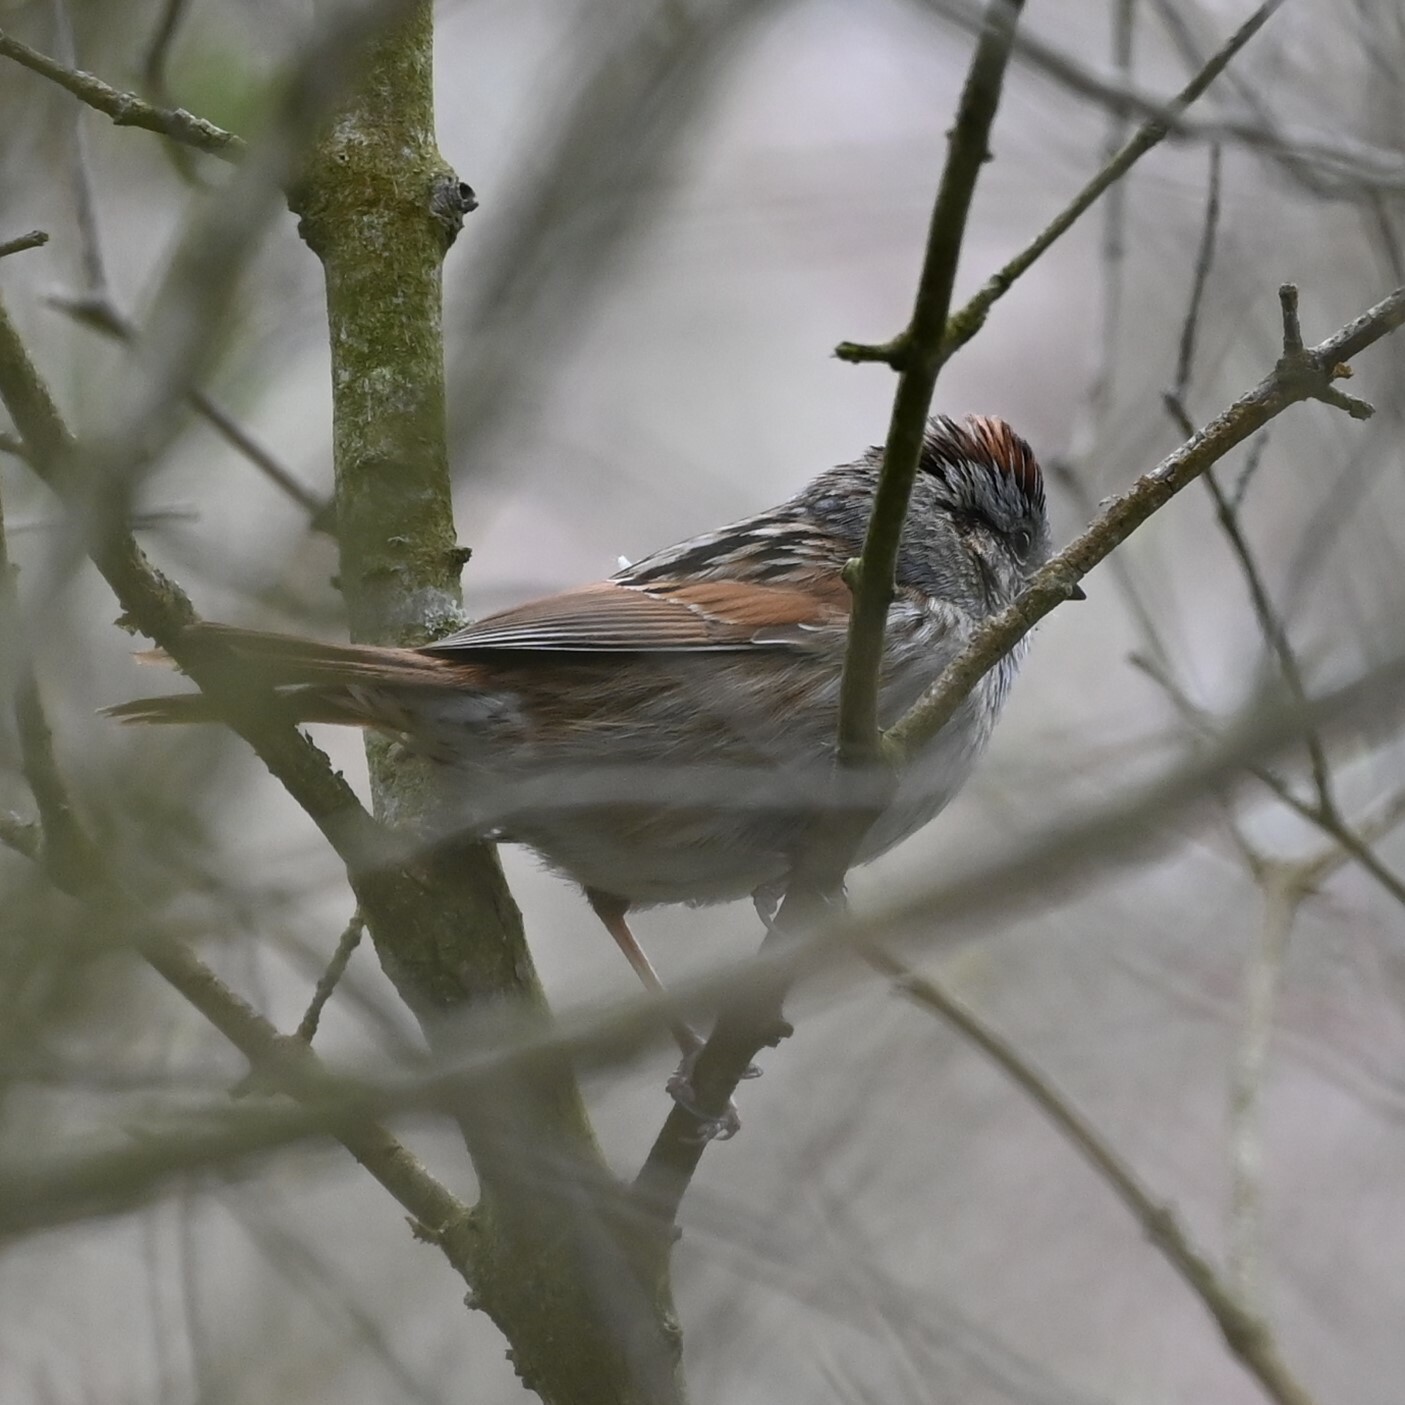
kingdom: Animalia
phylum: Chordata
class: Aves
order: Passeriformes
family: Passerellidae
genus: Melospiza
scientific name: Melospiza georgiana
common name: Swamp sparrow
